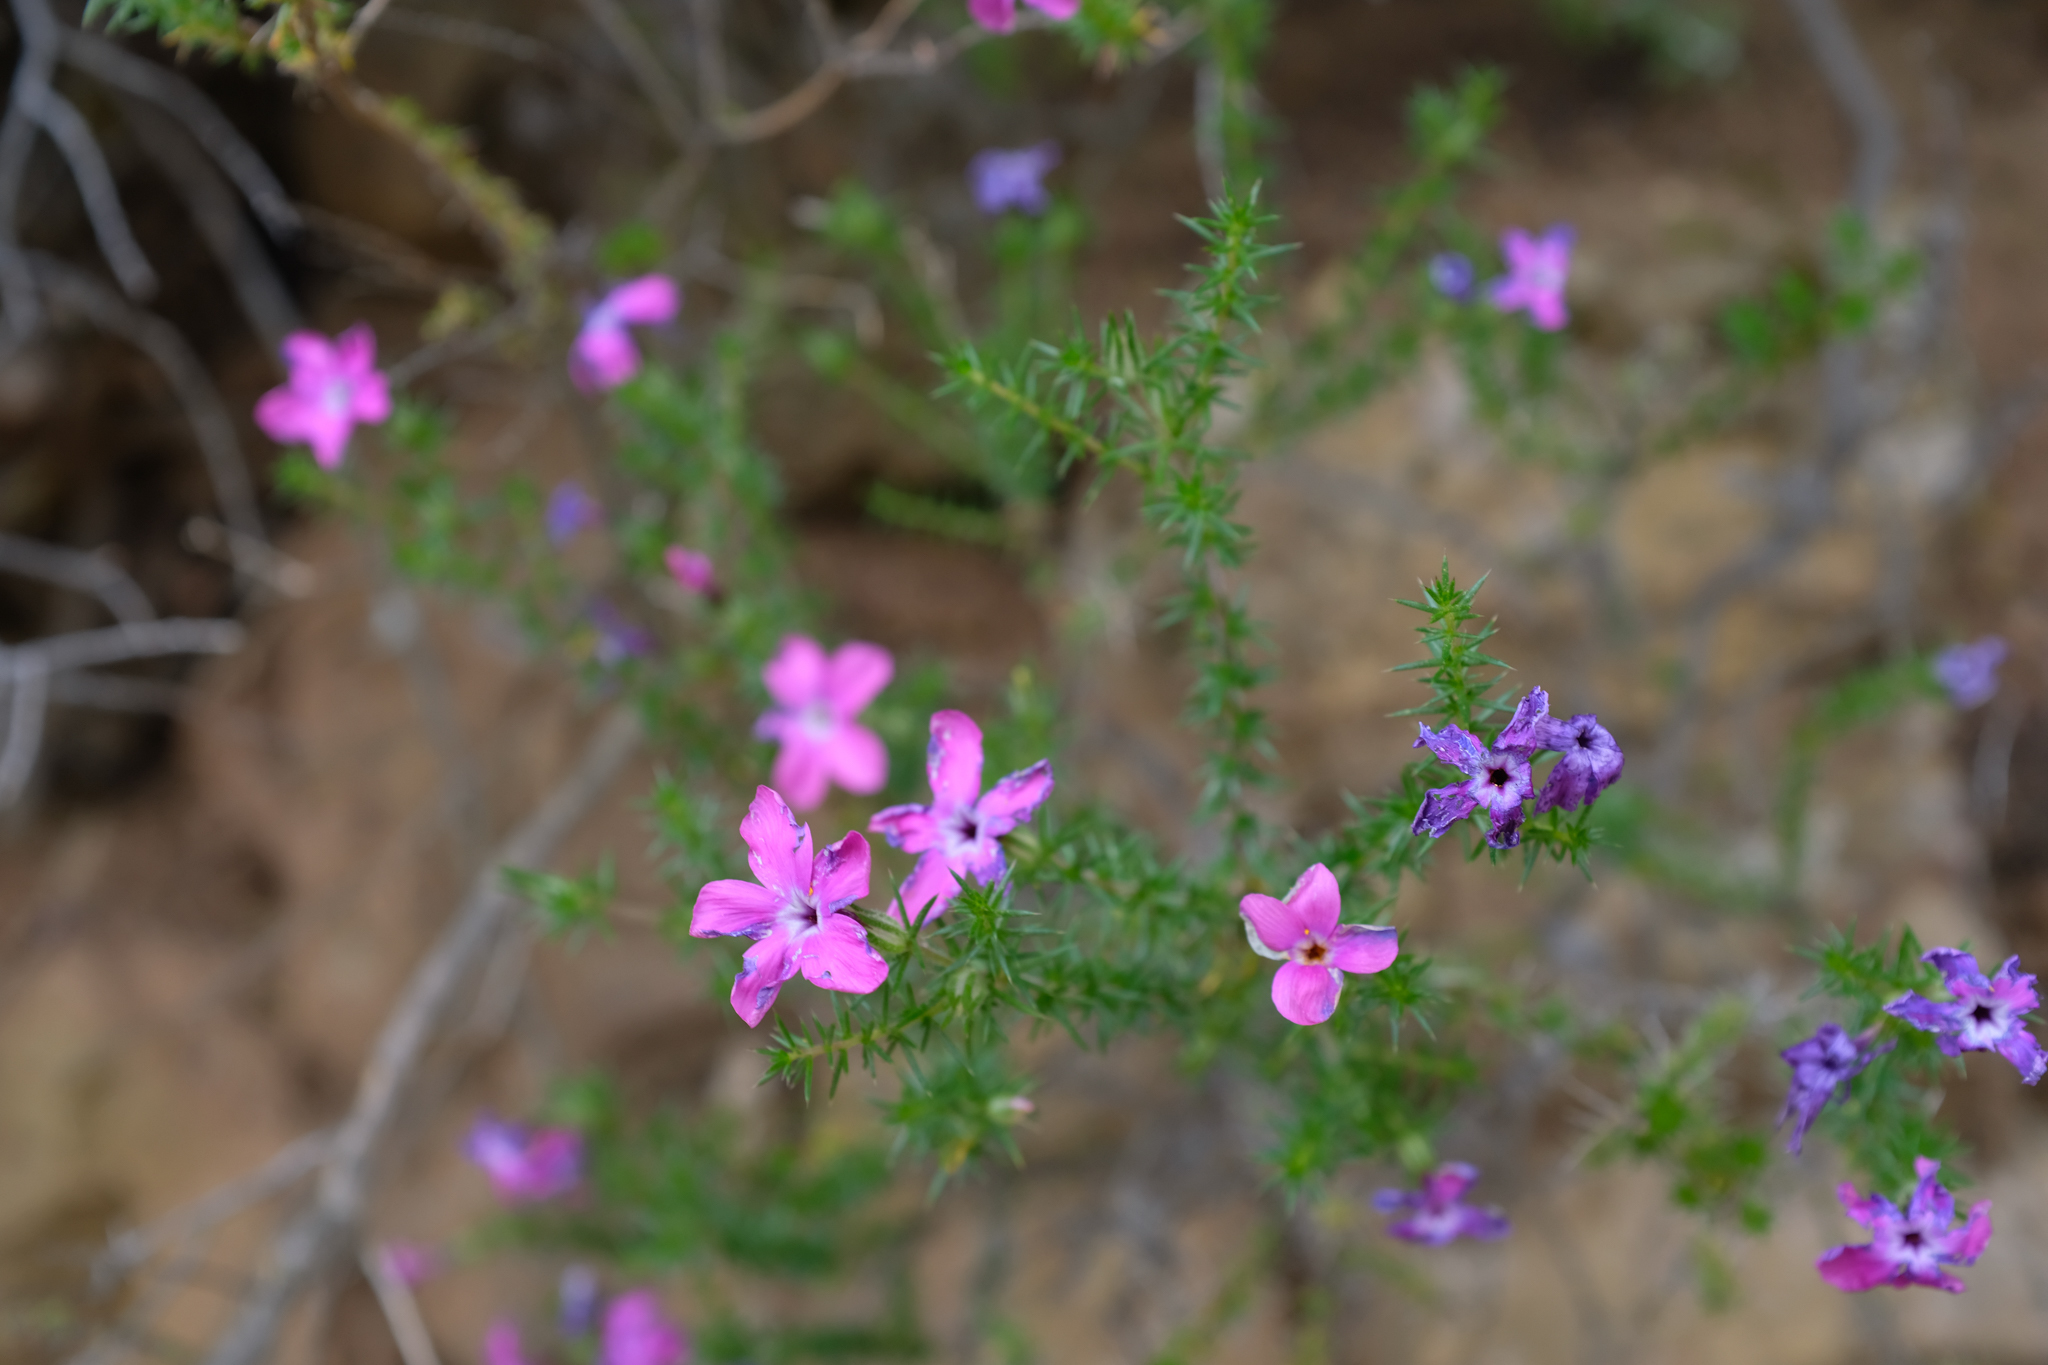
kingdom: Plantae
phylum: Tracheophyta
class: Magnoliopsida
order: Ericales
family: Polemoniaceae
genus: Linanthus
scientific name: Linanthus californicus
